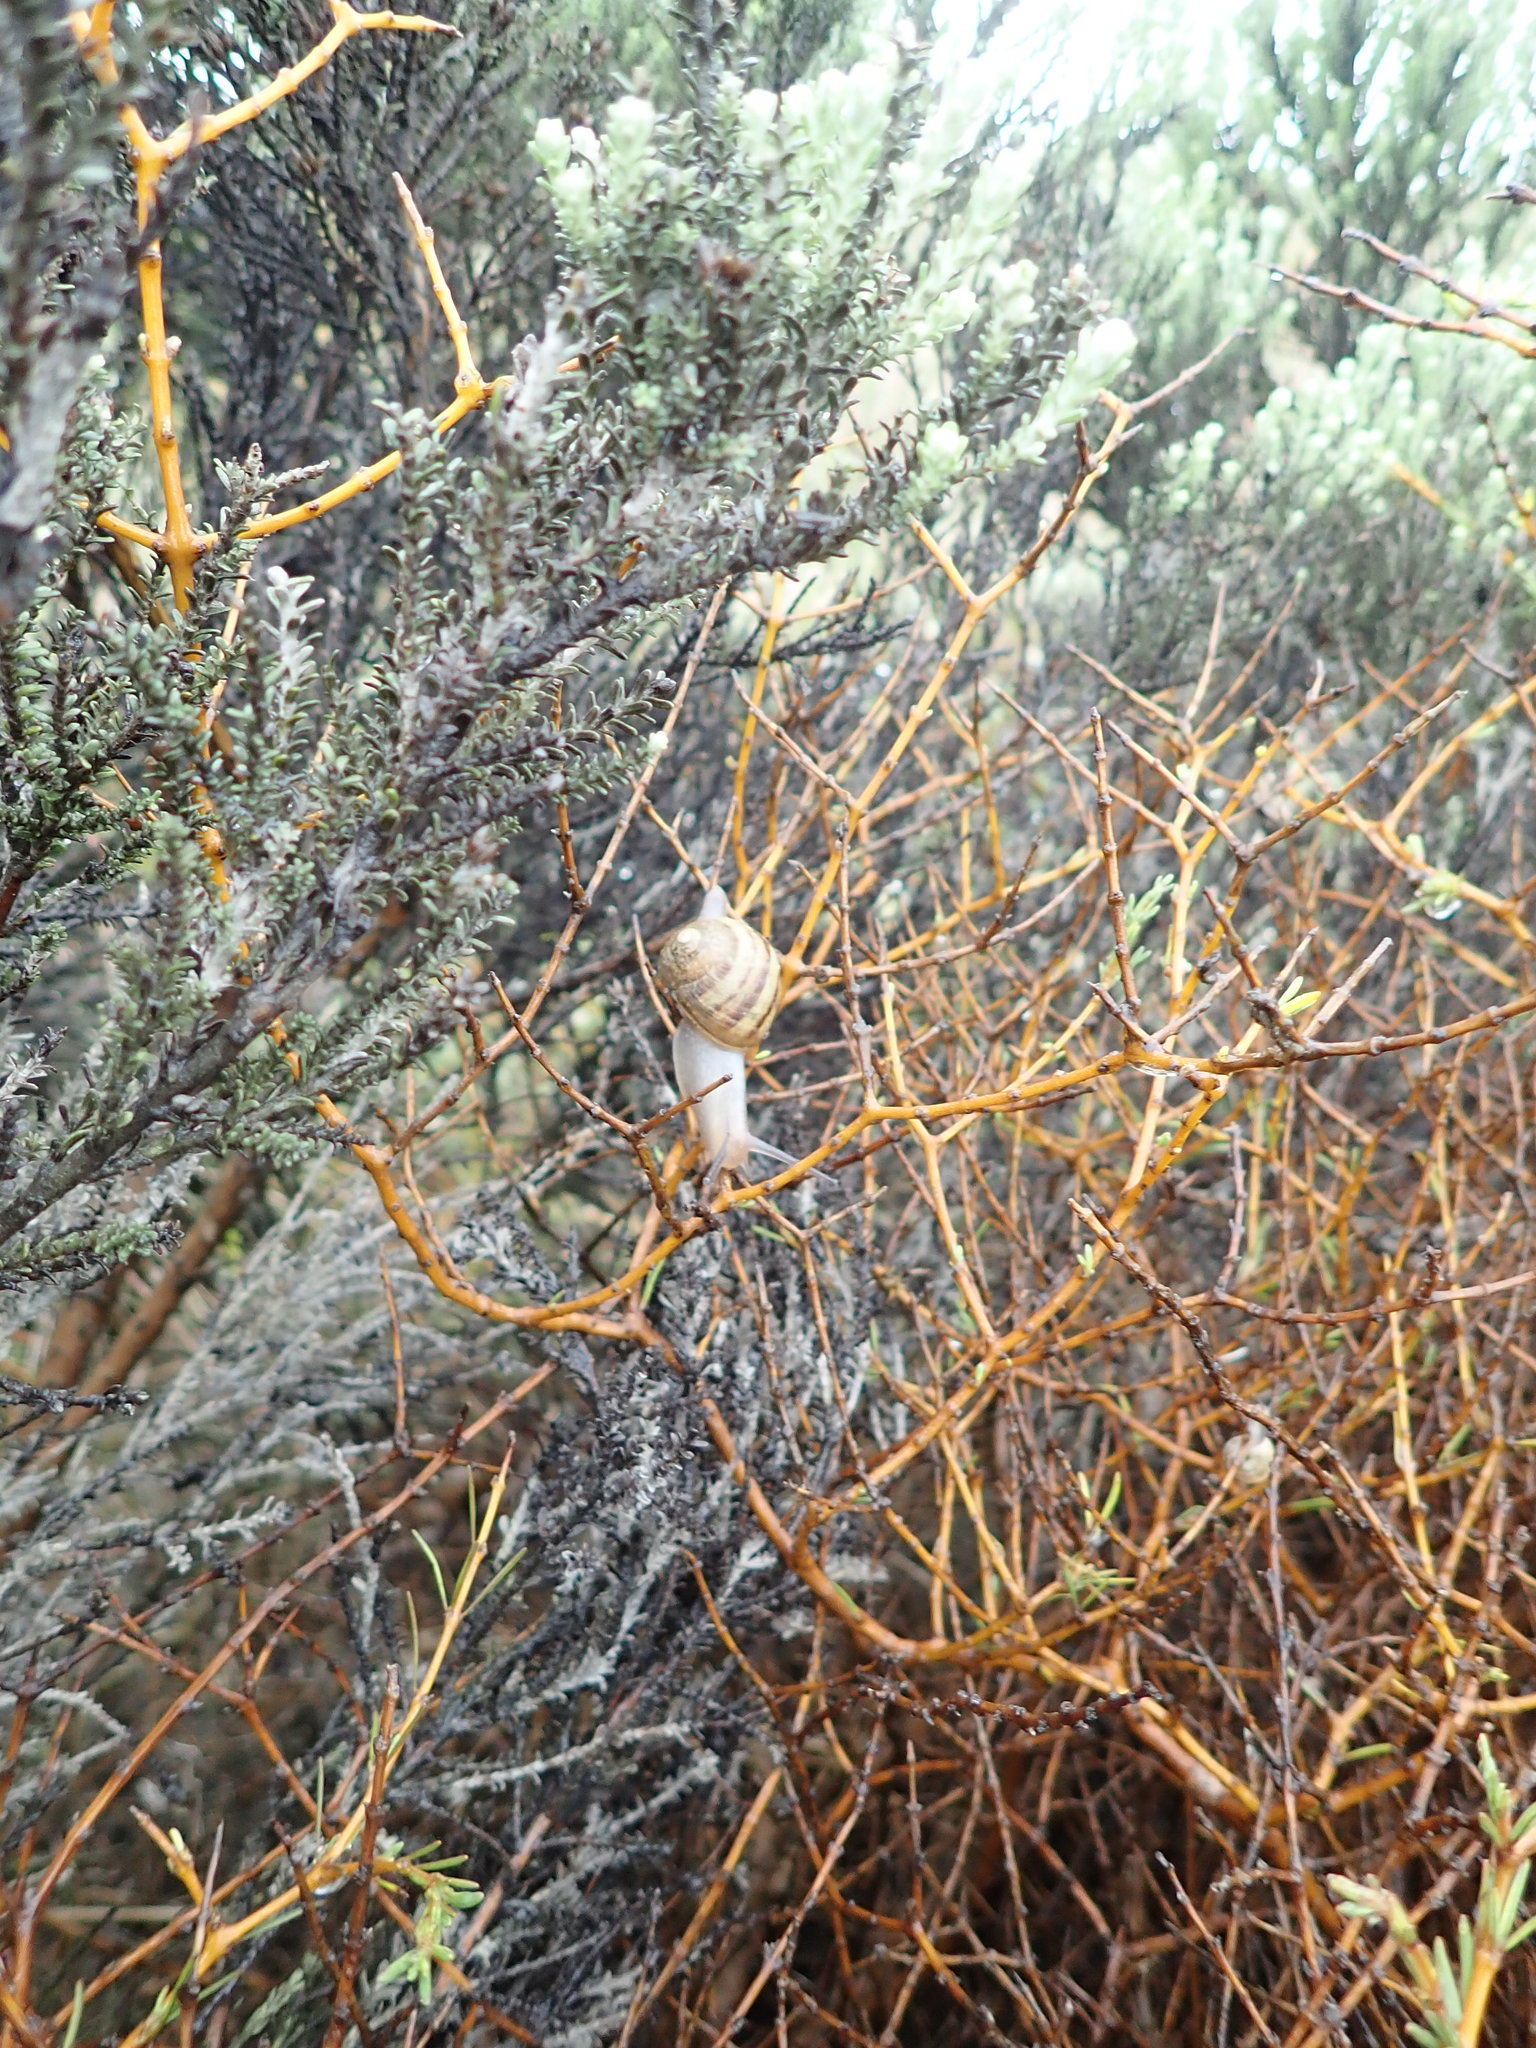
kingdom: Animalia
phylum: Mollusca
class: Gastropoda
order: Stylommatophora
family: Helicidae
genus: Cornu
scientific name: Cornu aspersum
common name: Brown garden snail
